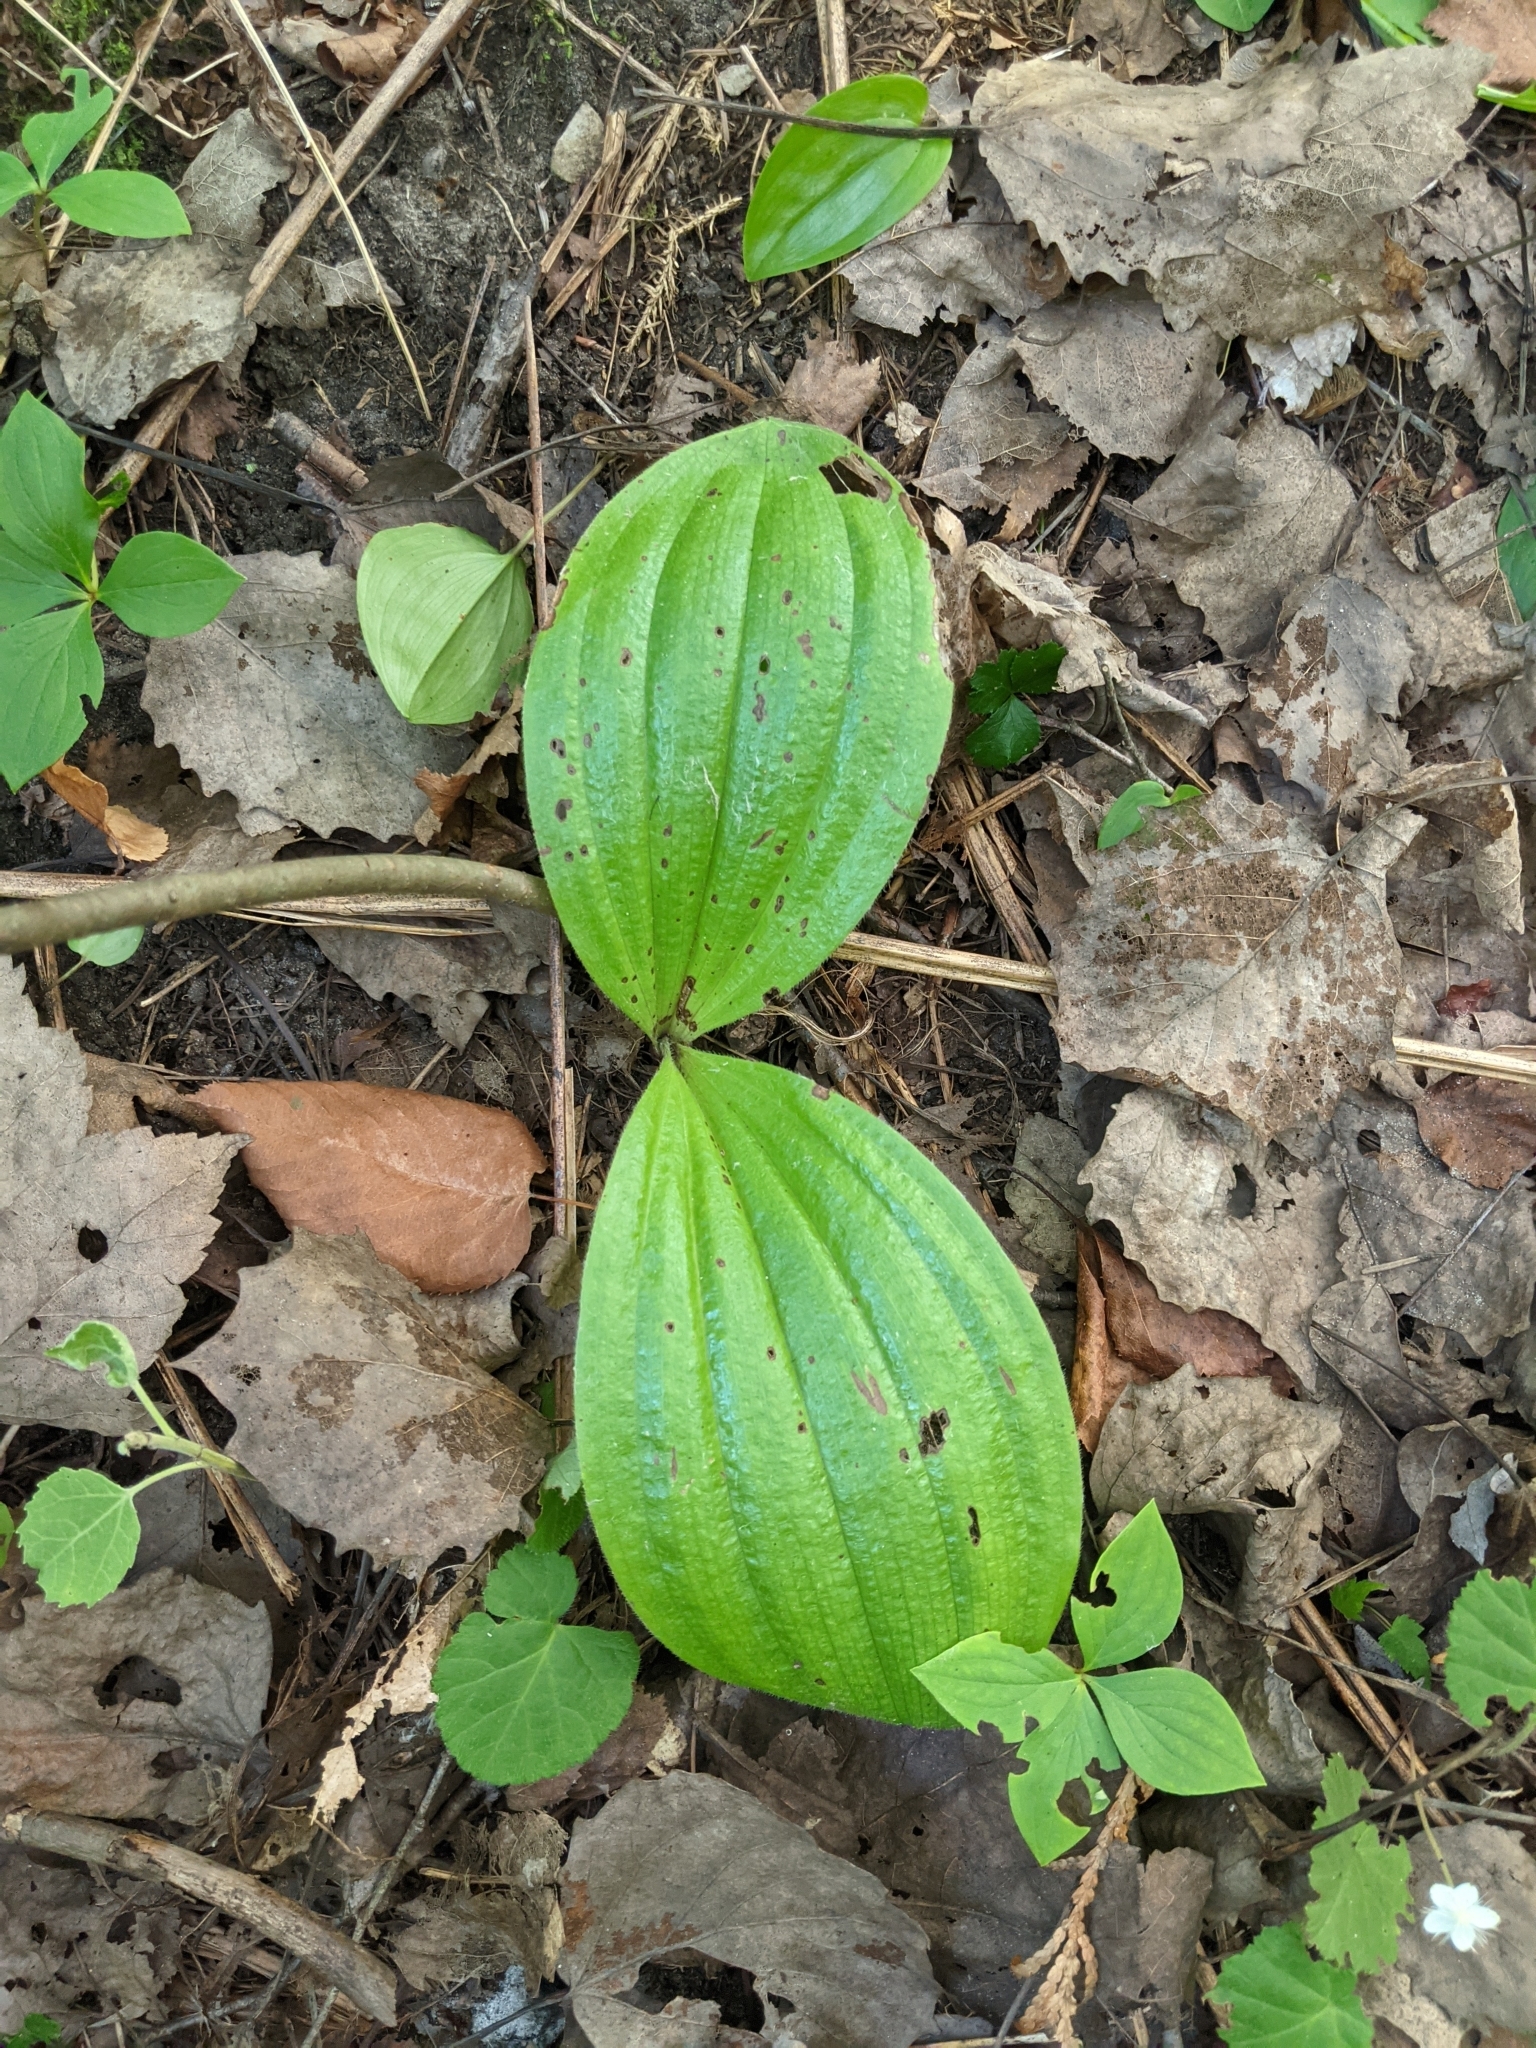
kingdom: Plantae
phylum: Tracheophyta
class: Liliopsida
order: Asparagales
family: Orchidaceae
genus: Cypripedium
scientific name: Cypripedium acaule
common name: Pink lady's-slipper
